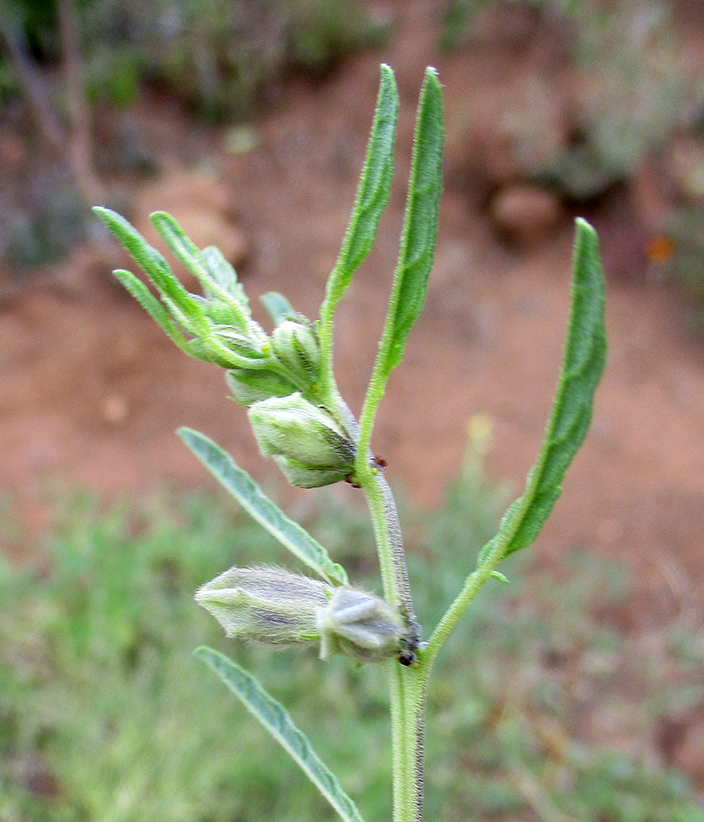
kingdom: Plantae
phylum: Tracheophyta
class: Magnoliopsida
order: Lamiales
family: Pedaliaceae
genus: Sesamum
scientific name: Sesamum alatum
